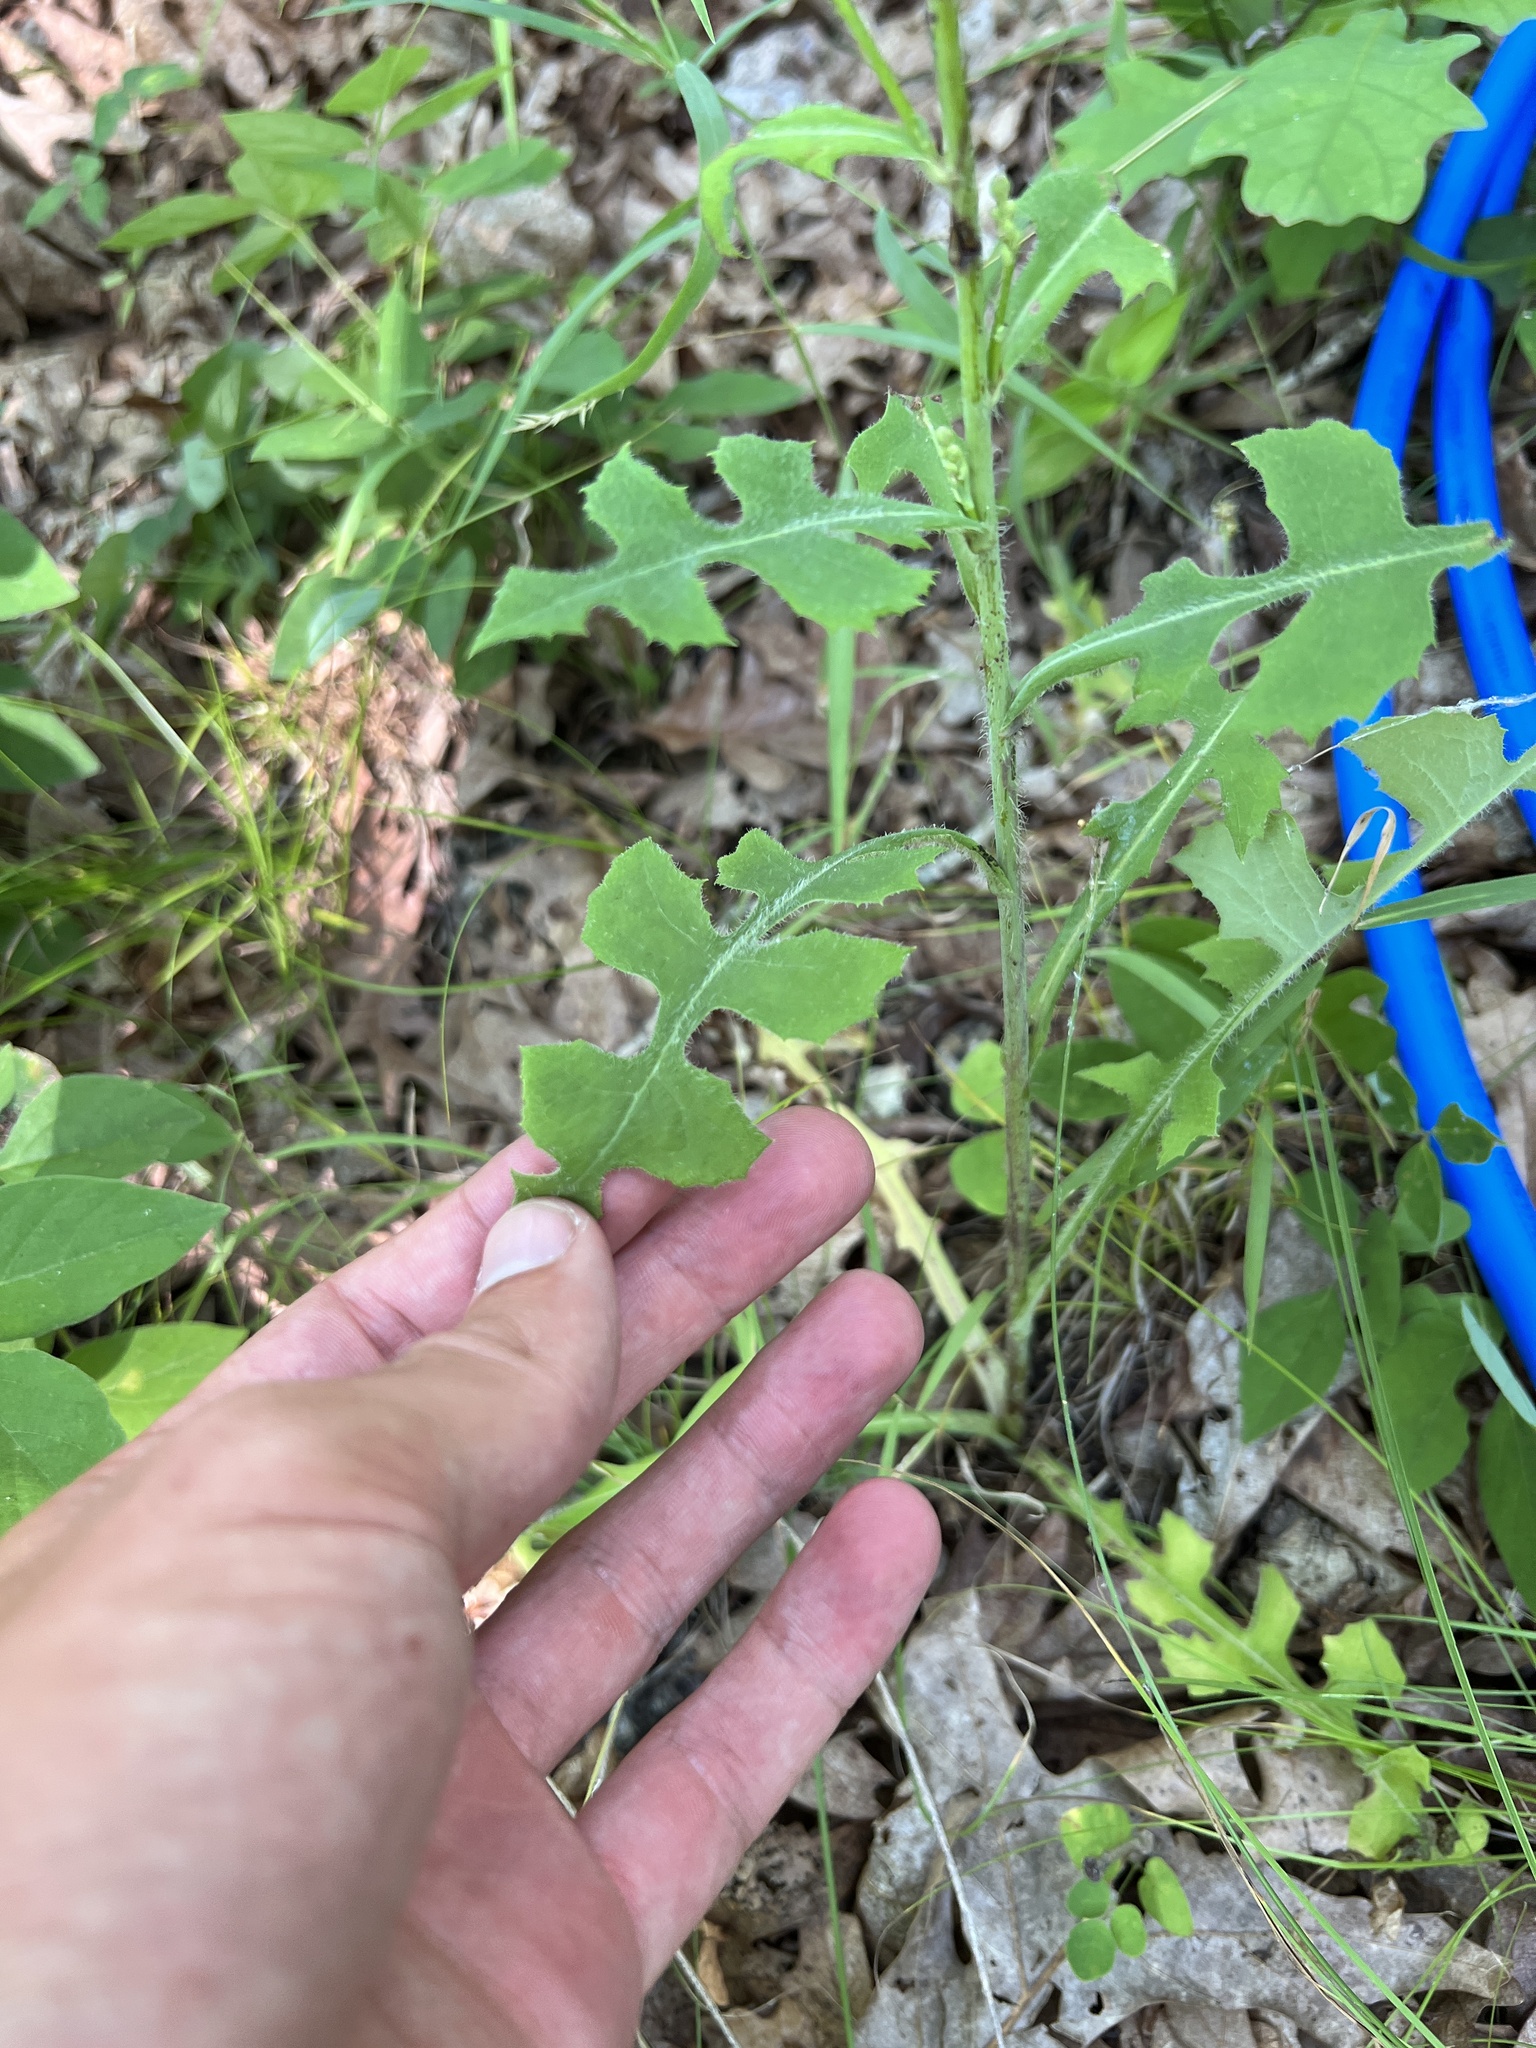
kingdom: Plantae
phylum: Tracheophyta
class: Magnoliopsida
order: Asterales
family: Asteraceae
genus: Lactuca
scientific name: Lactuca hirsuta
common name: Hairy lettuce
